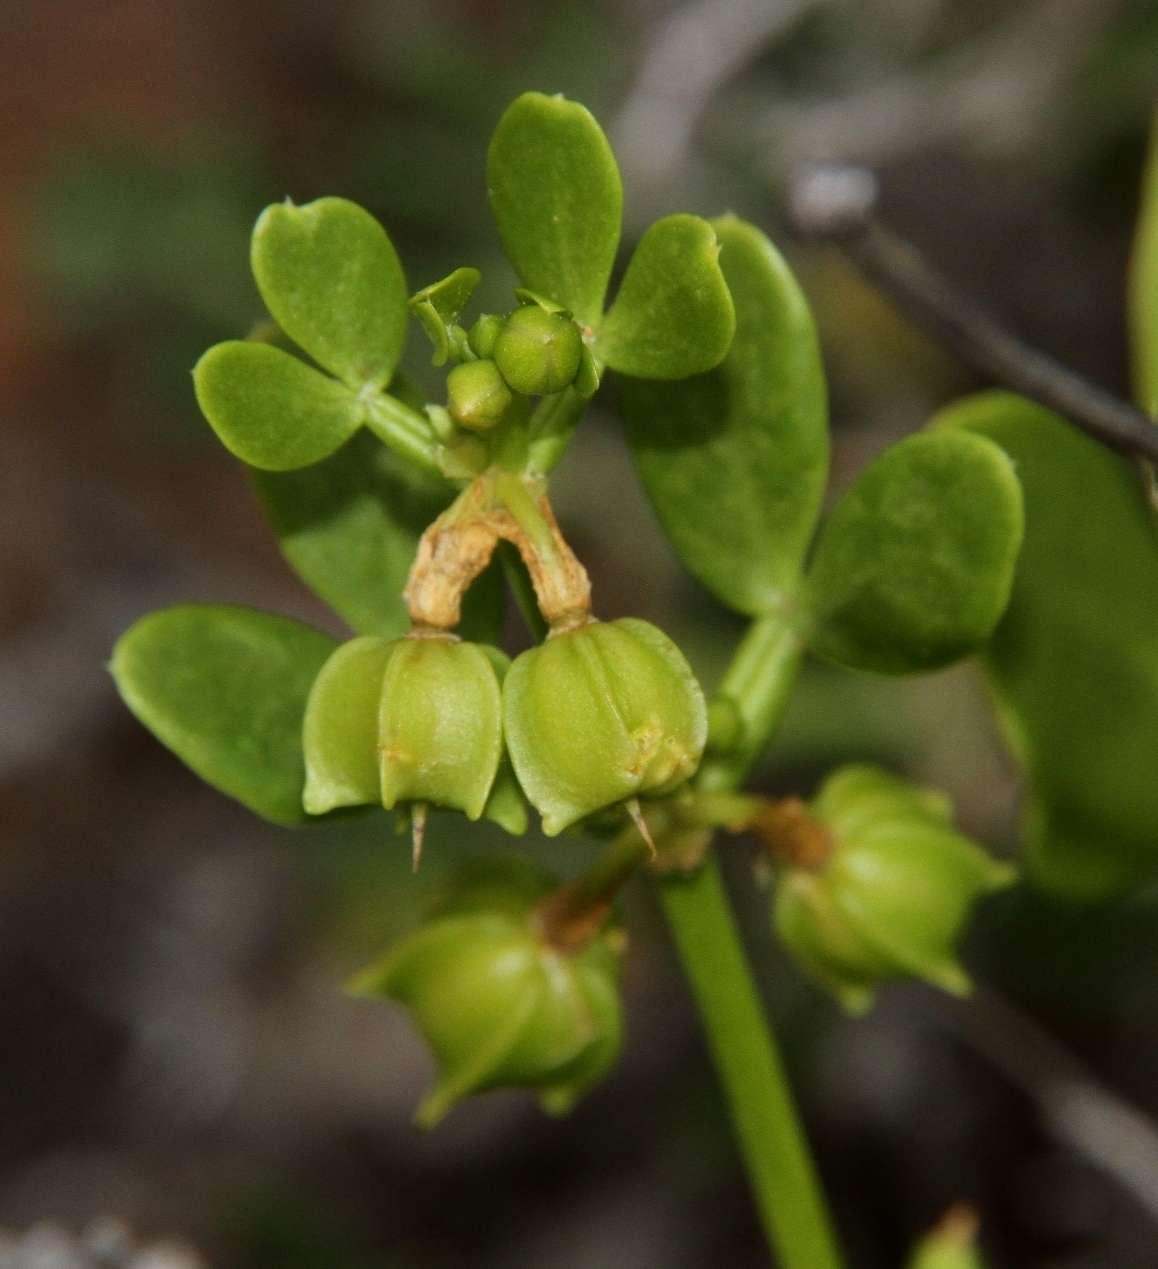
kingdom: Plantae
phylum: Tracheophyta
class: Magnoliopsida
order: Zygophyllales
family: Zygophyllaceae
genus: Roepera
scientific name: Roepera apiculata
